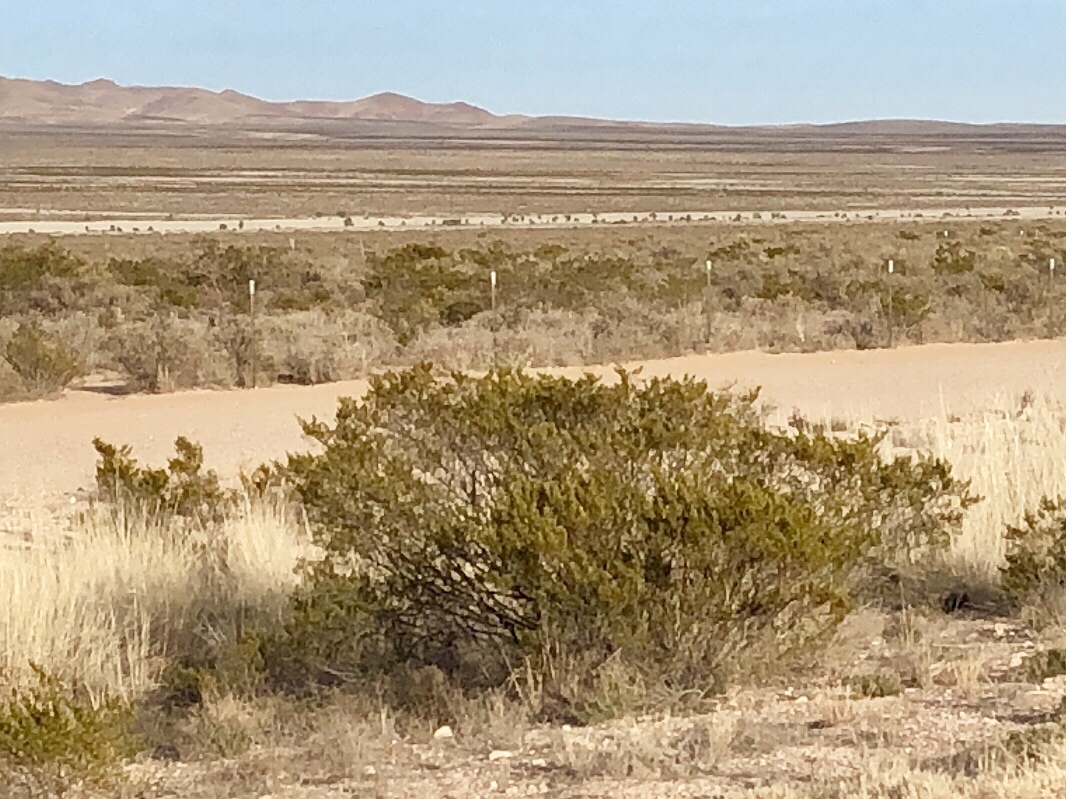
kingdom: Plantae
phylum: Tracheophyta
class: Magnoliopsida
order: Zygophyllales
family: Zygophyllaceae
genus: Larrea
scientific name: Larrea tridentata
